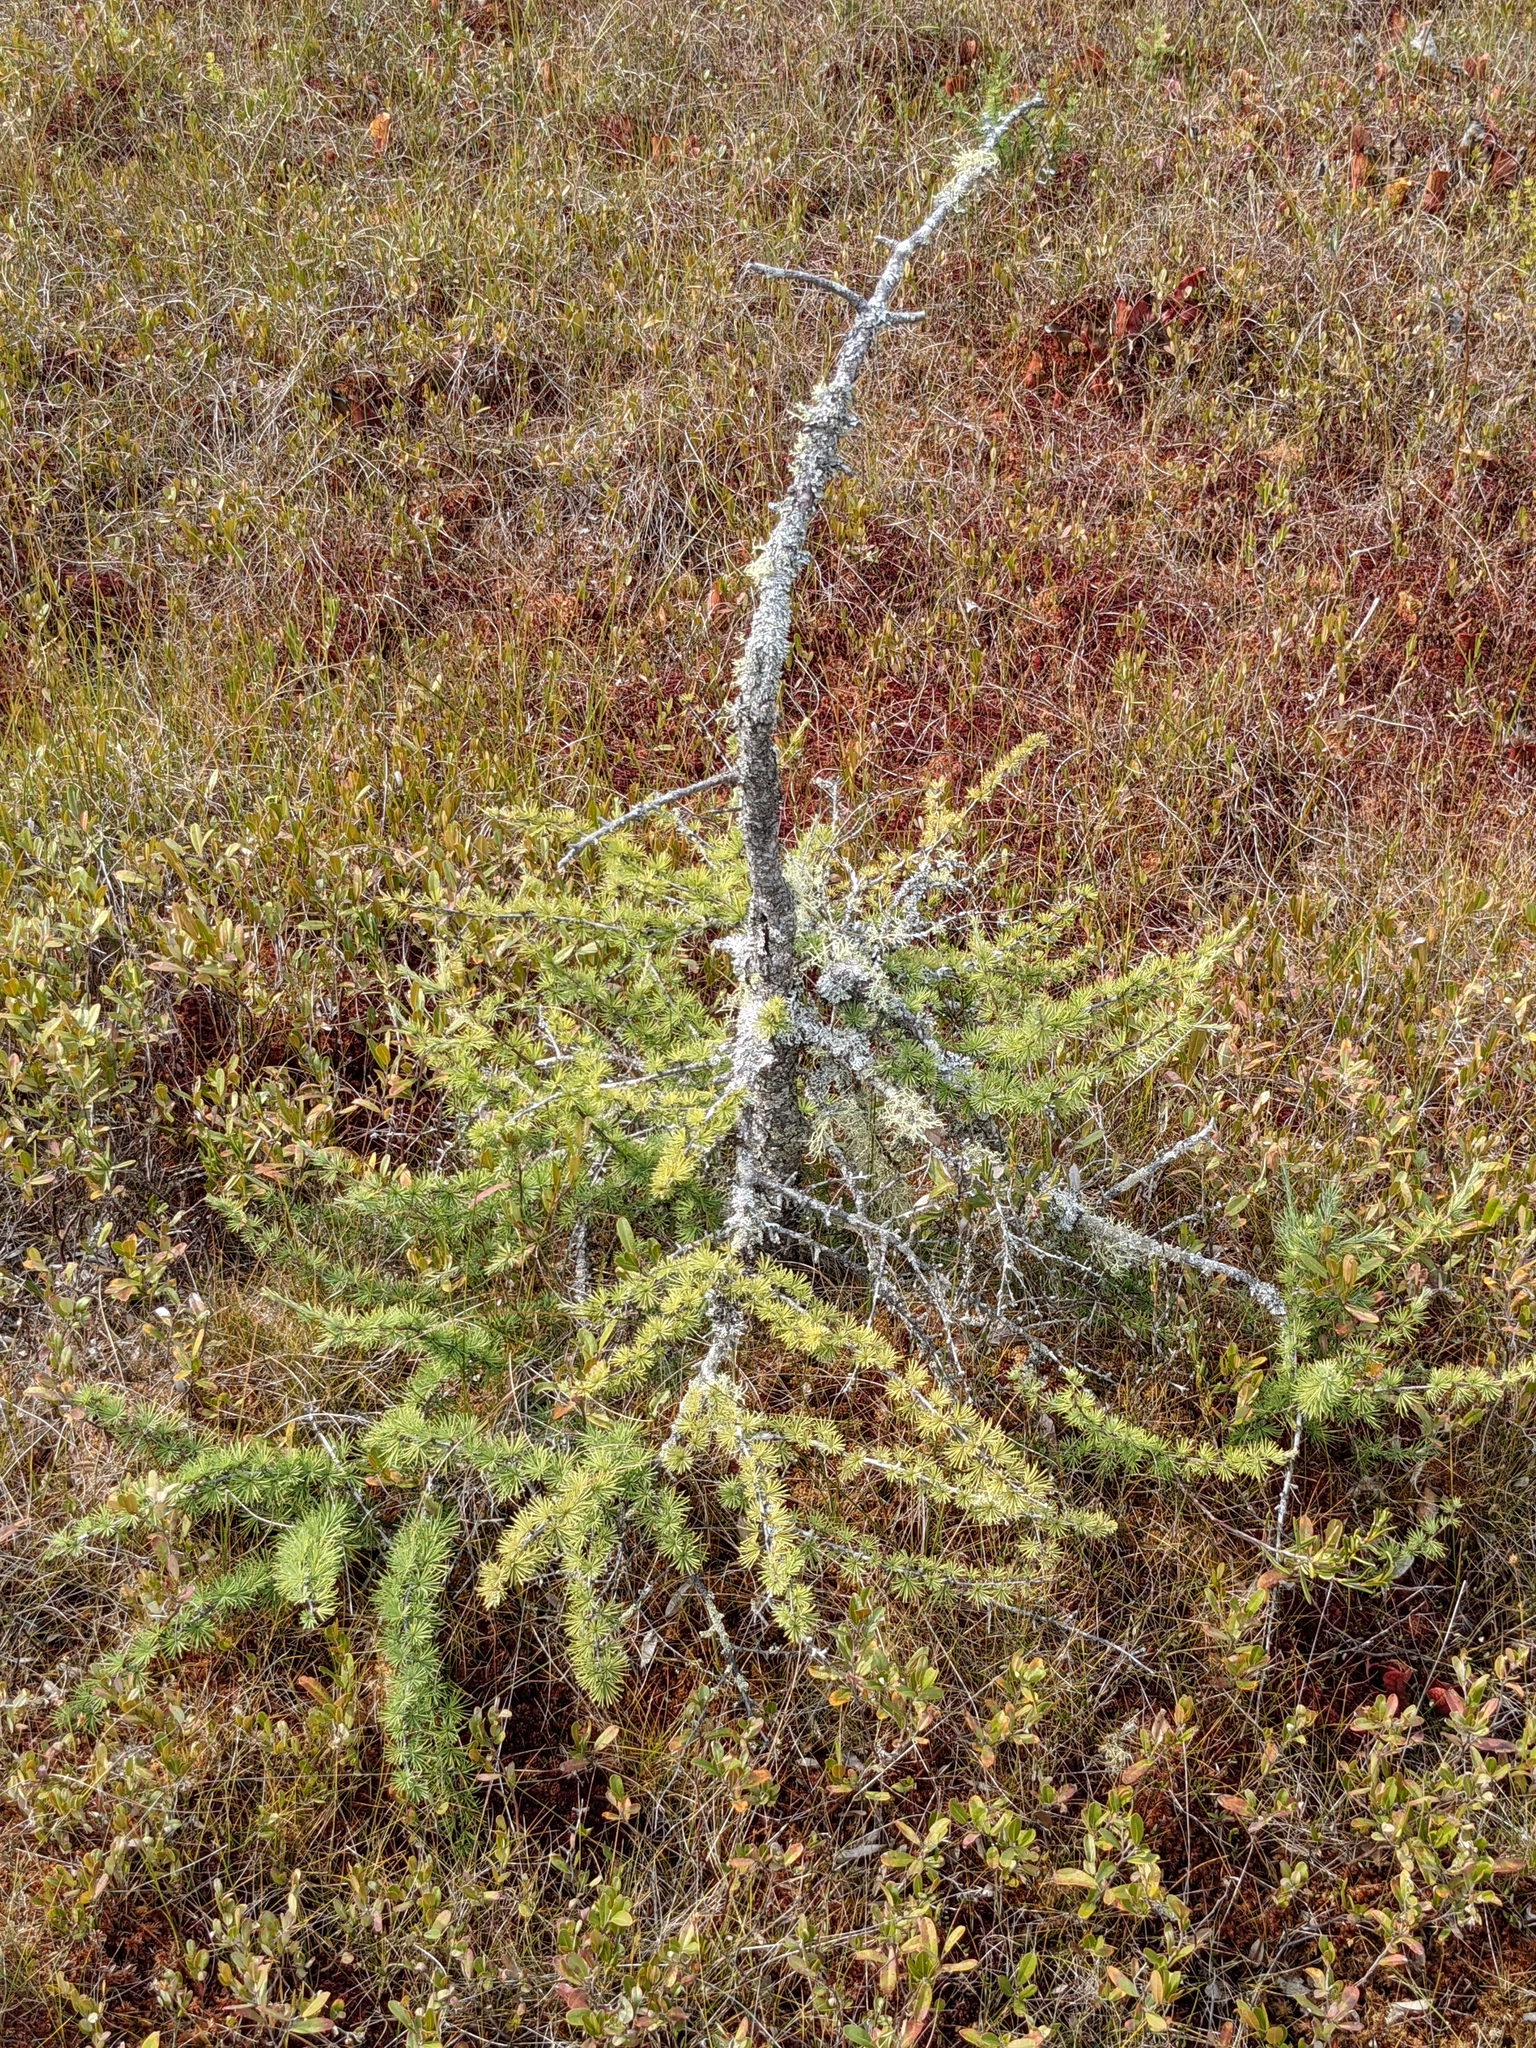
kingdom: Plantae
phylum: Tracheophyta
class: Pinopsida
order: Pinales
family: Pinaceae
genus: Larix
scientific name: Larix laricina
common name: American larch
